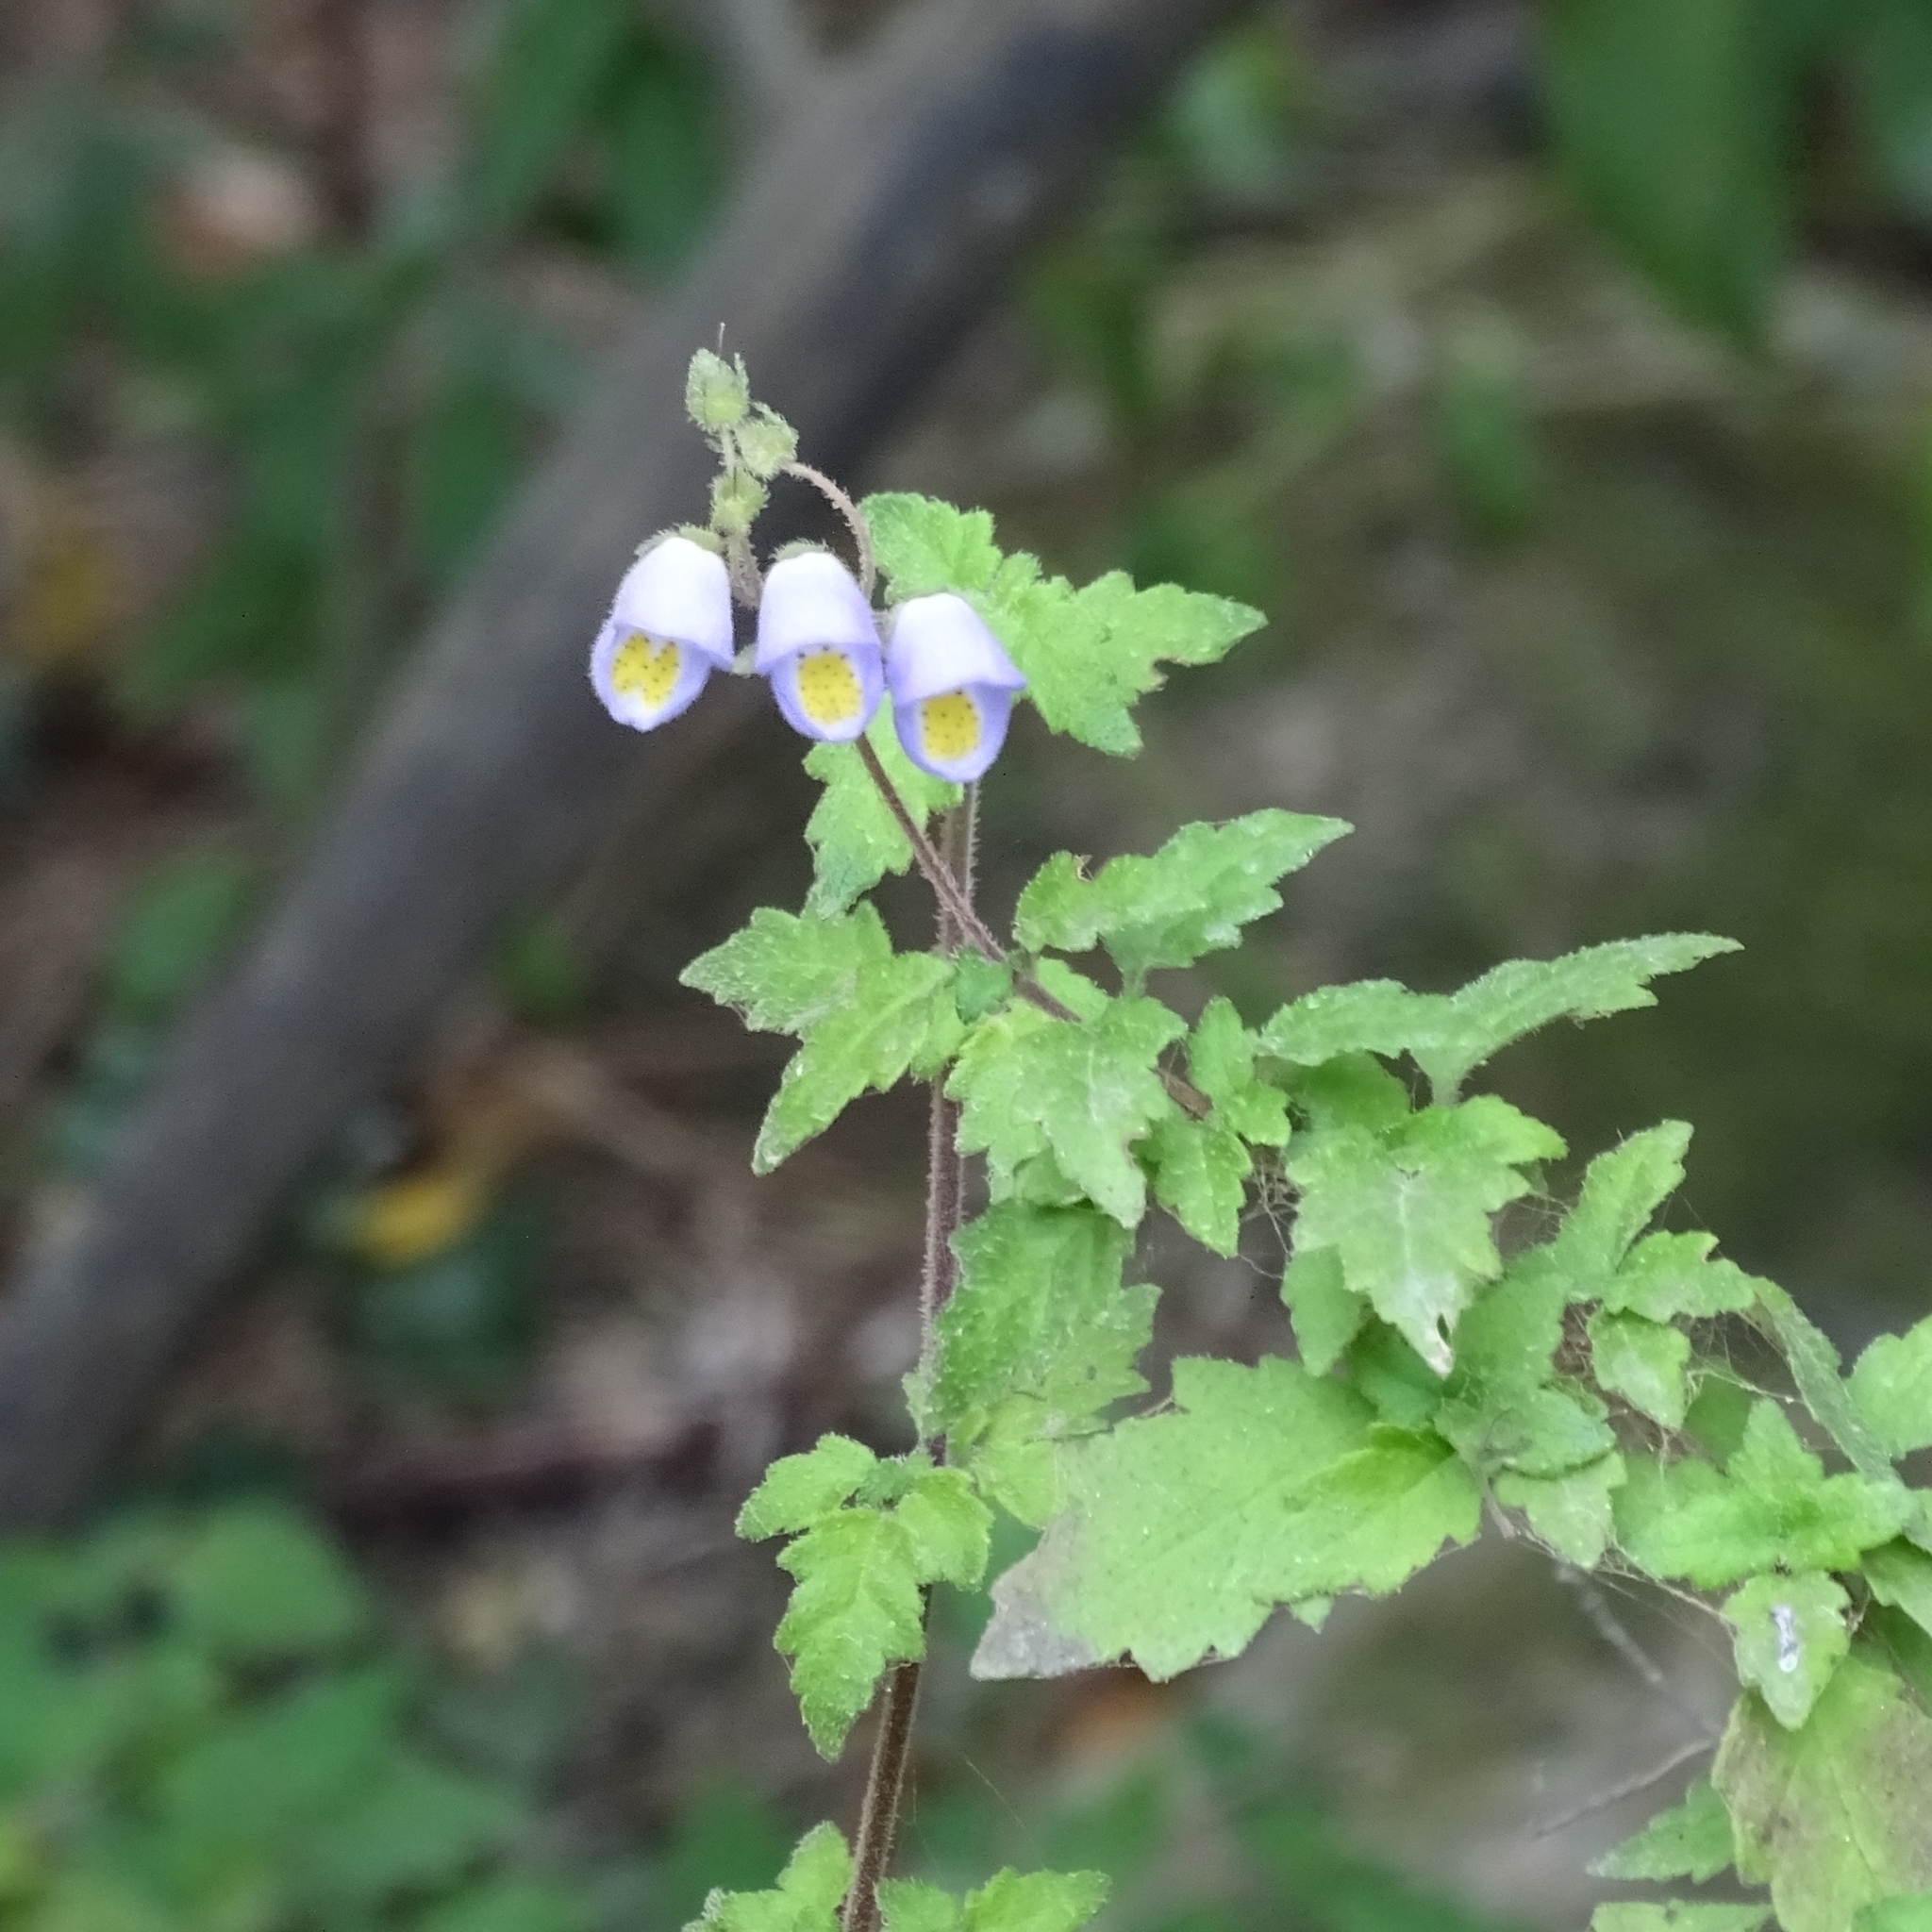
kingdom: Plantae
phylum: Tracheophyta
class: Magnoliopsida
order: Lamiales
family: Calceolariaceae
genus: Jovellana
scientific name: Jovellana violacea
